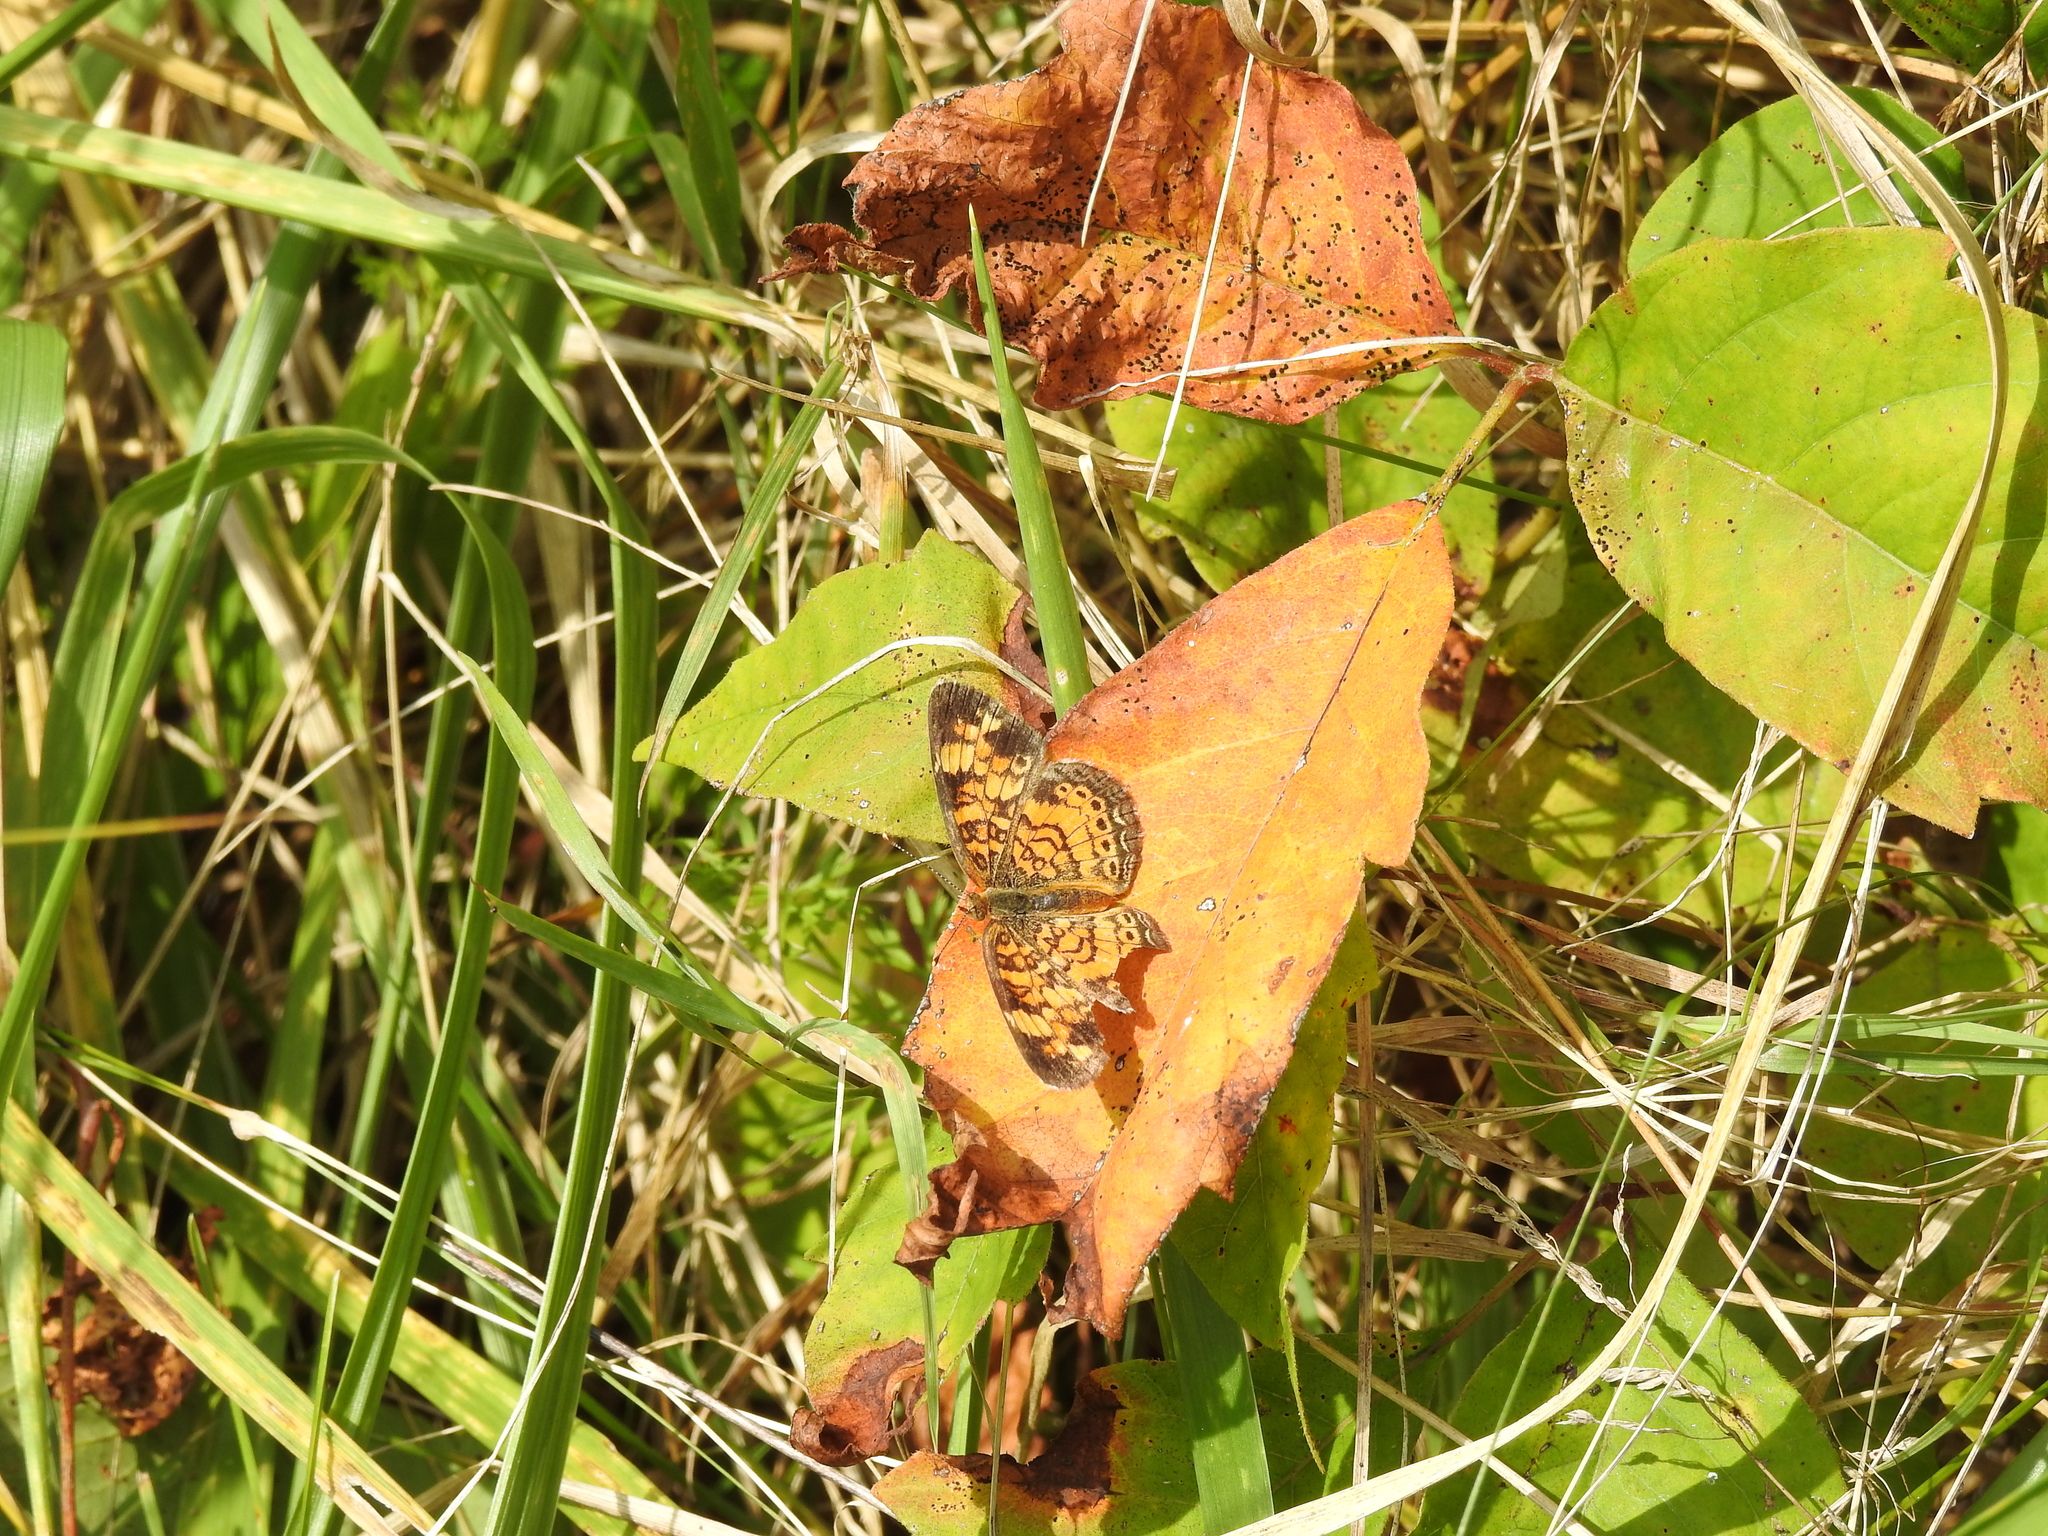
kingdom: Animalia
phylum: Arthropoda
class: Insecta
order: Lepidoptera
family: Nymphalidae
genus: Phyciodes
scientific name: Phyciodes tharos
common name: Pearl crescent
